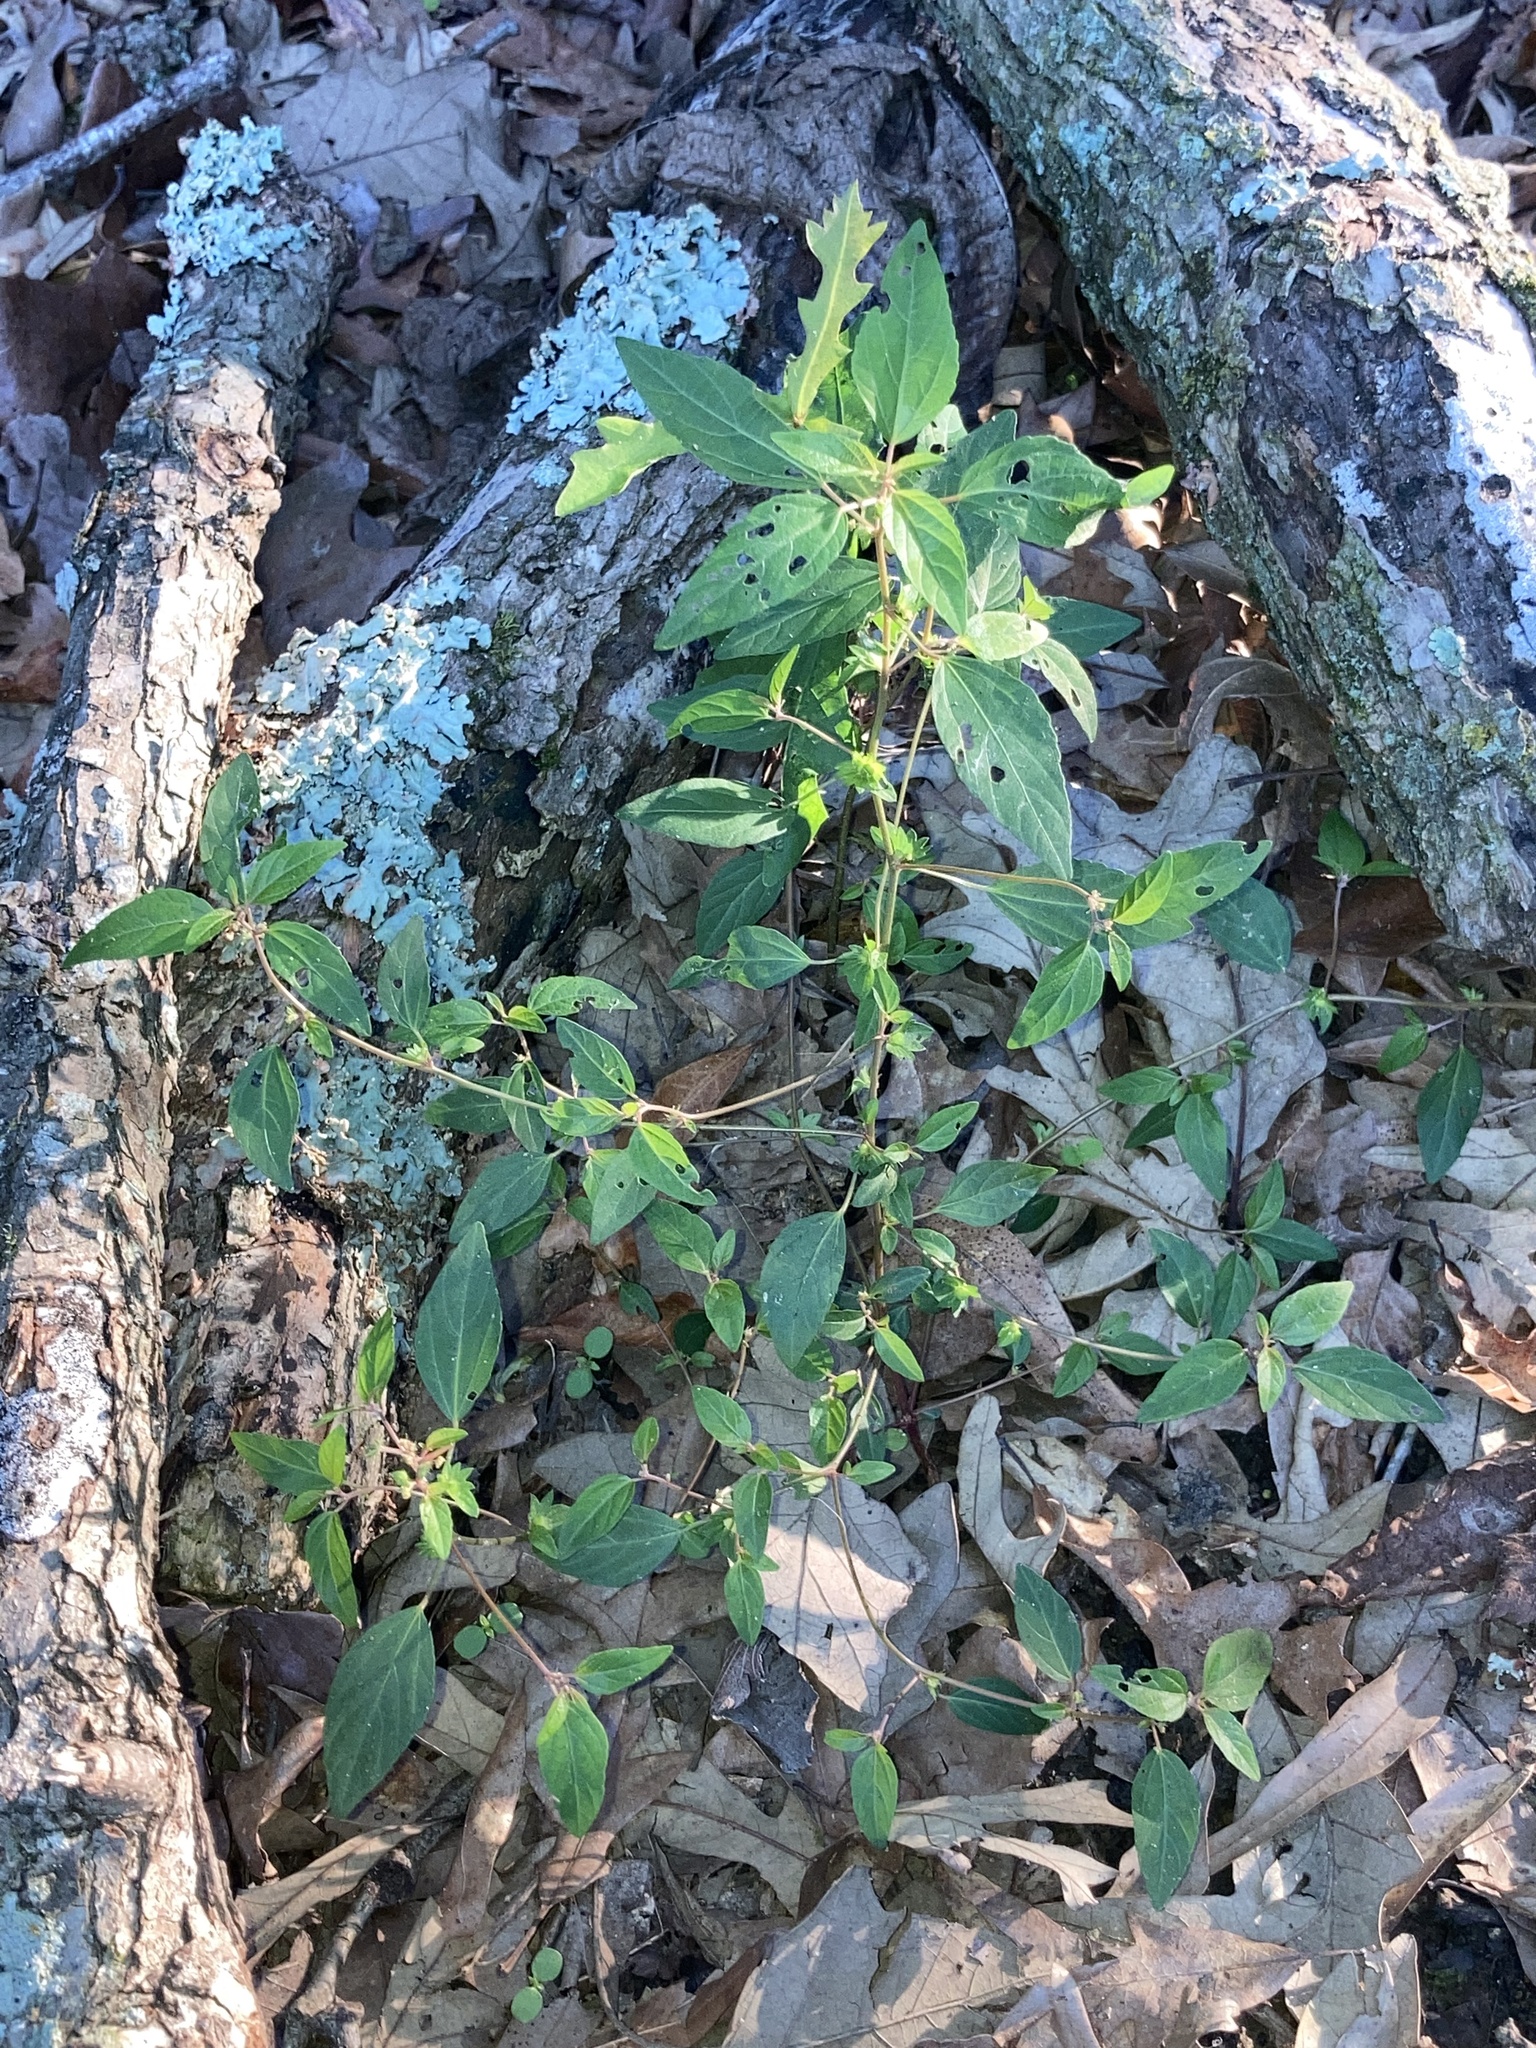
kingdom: Plantae
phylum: Tracheophyta
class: Magnoliopsida
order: Malpighiales
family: Euphorbiaceae
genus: Acalypha
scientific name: Acalypha virginica
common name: Virginia copperleaf
